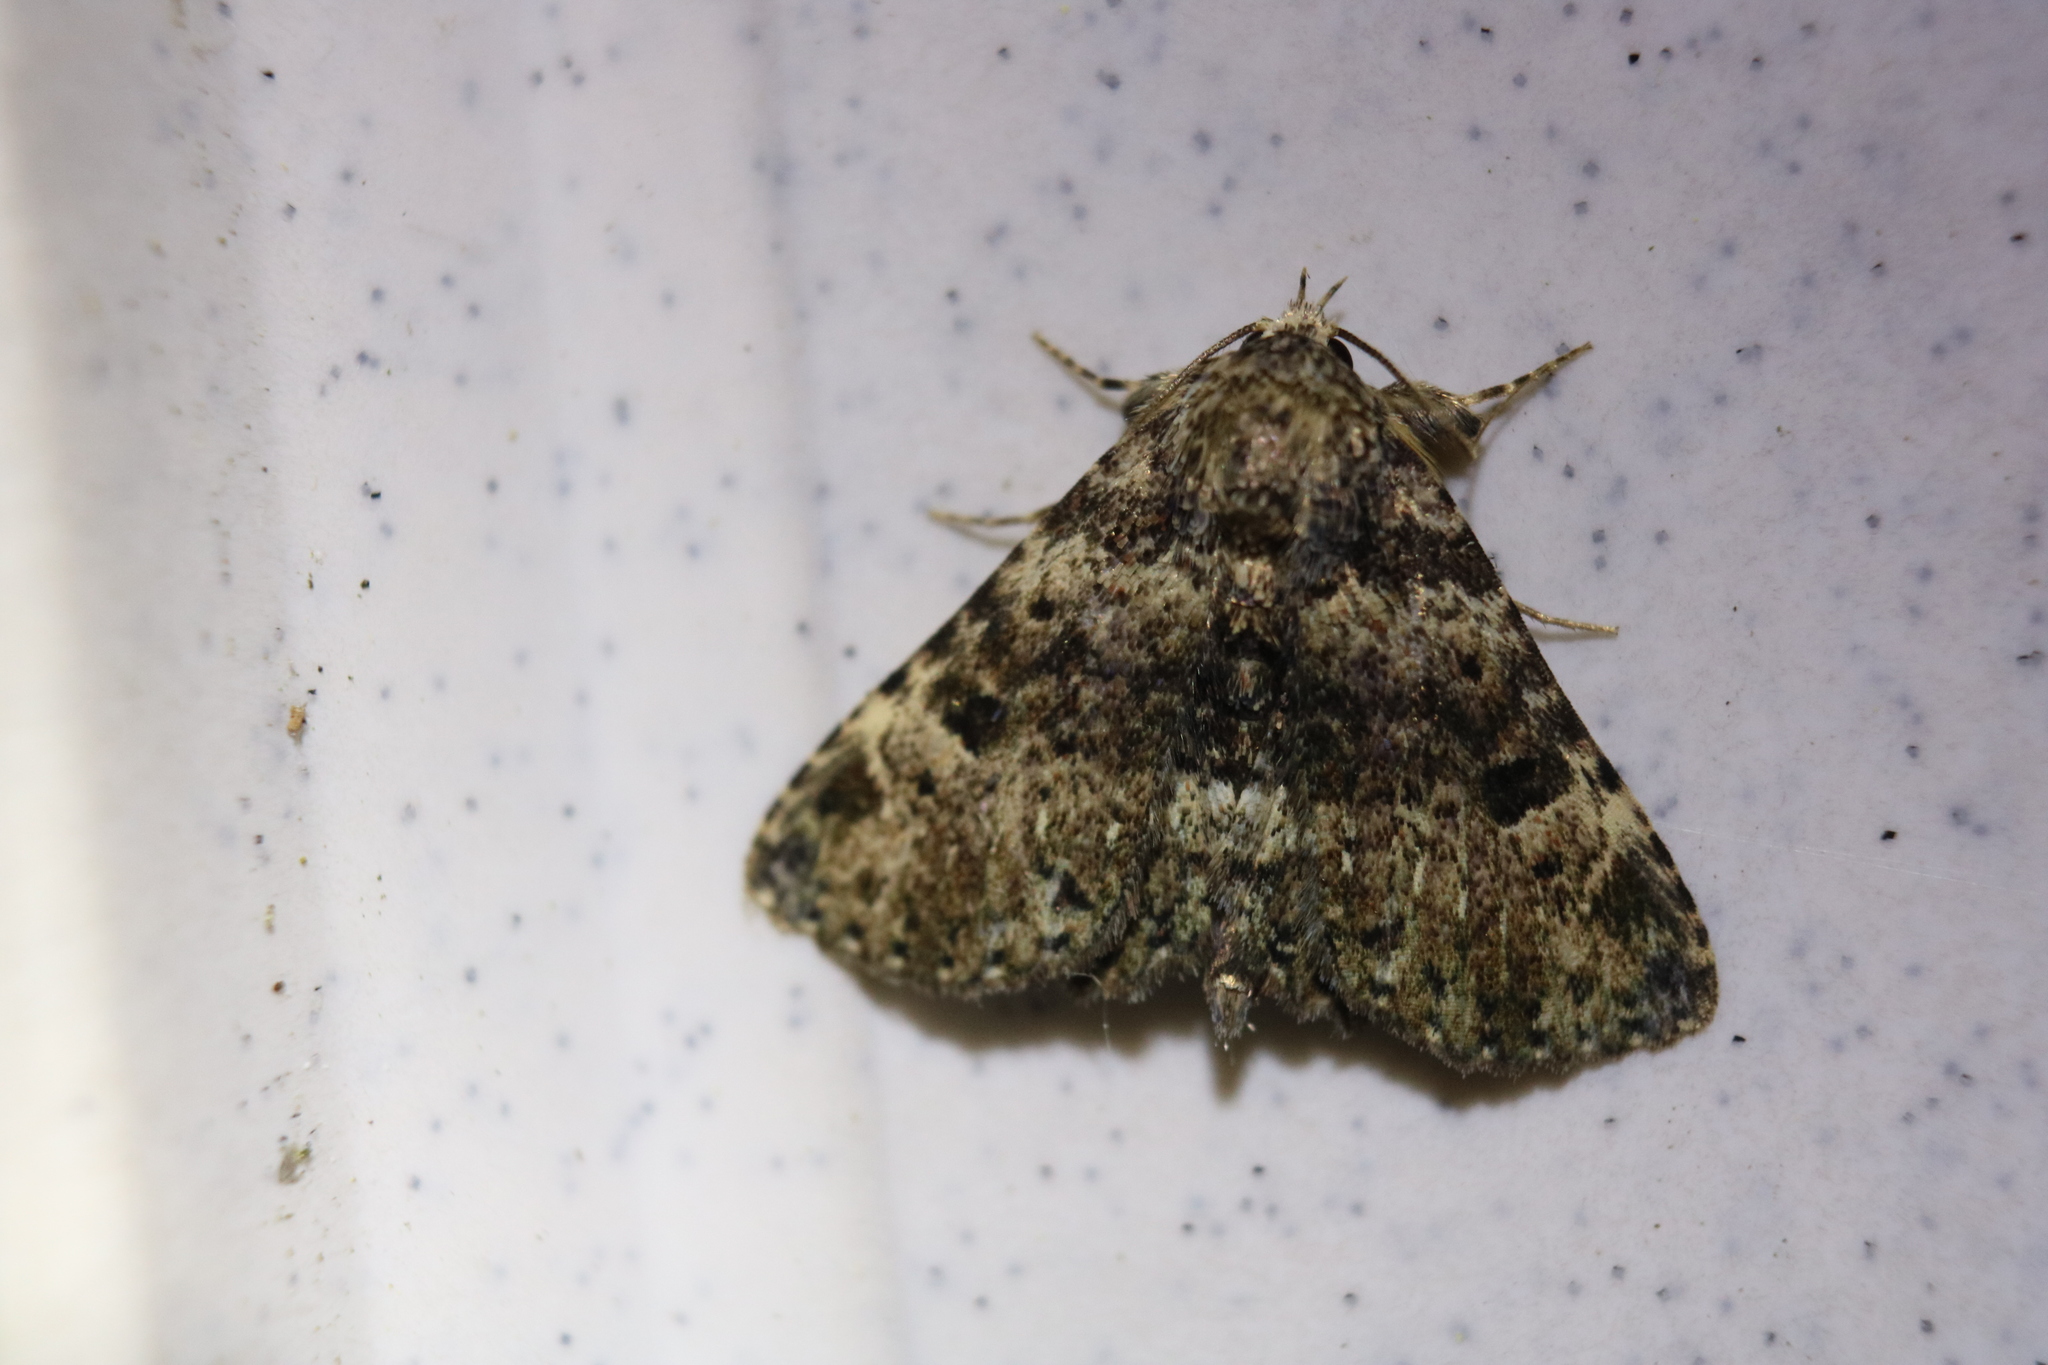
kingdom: Animalia
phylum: Arthropoda
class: Insecta
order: Lepidoptera
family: Erebidae
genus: Metalectra
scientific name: Metalectra discalis
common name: Common fungus moth
